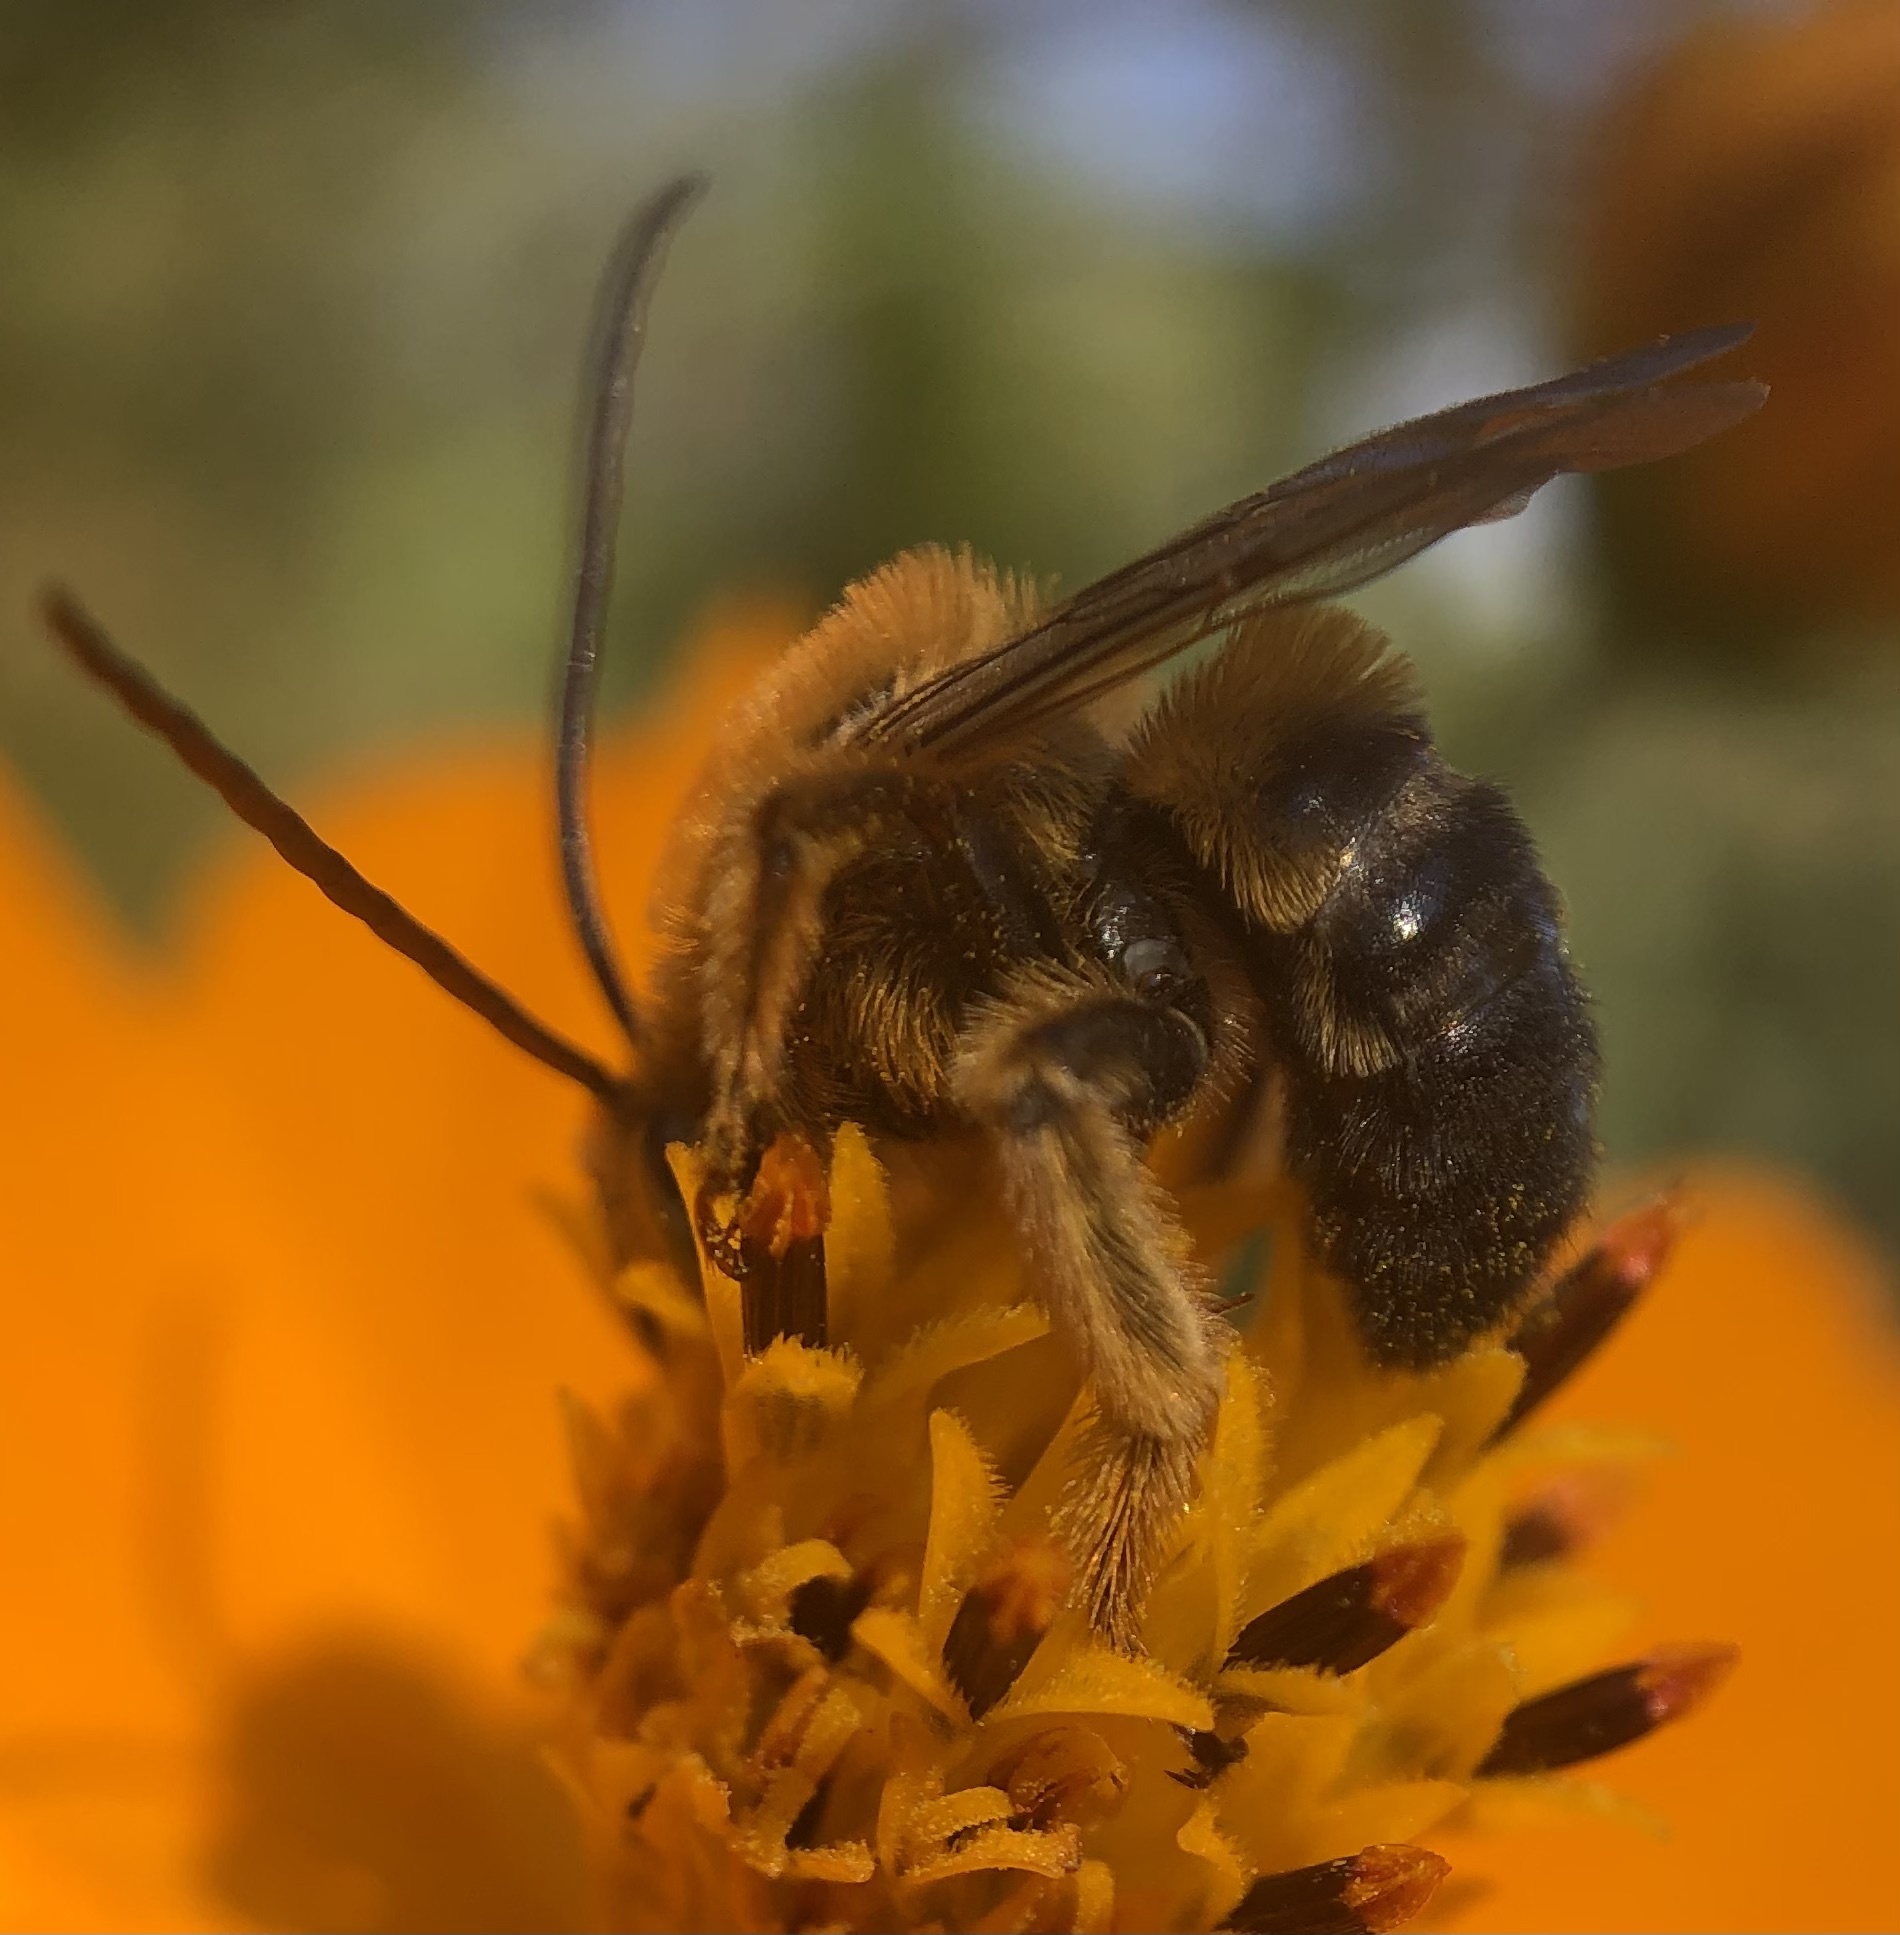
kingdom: Animalia
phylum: Arthropoda
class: Insecta
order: Hymenoptera
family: Apidae
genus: Melissodes
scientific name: Melissodes dentiventris
